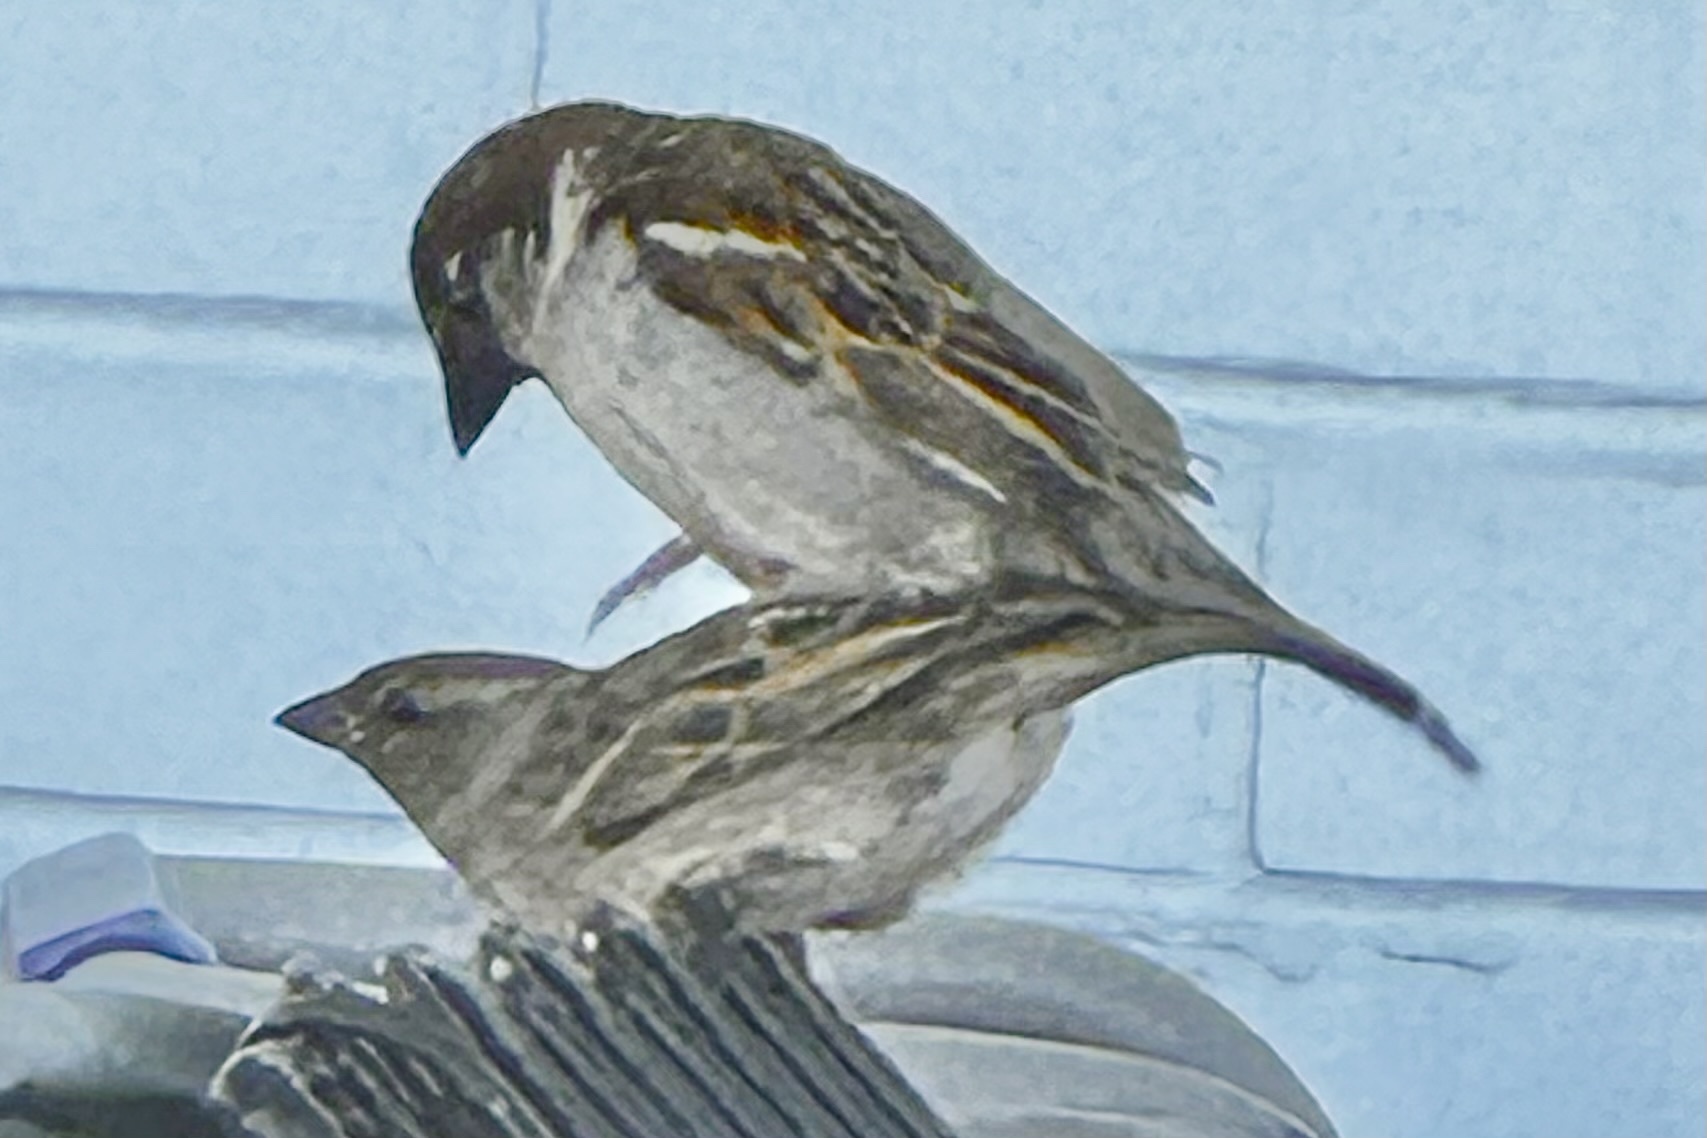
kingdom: Animalia
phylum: Chordata
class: Aves
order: Passeriformes
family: Passeridae
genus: Passer
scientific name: Passer domesticus
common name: House sparrow
